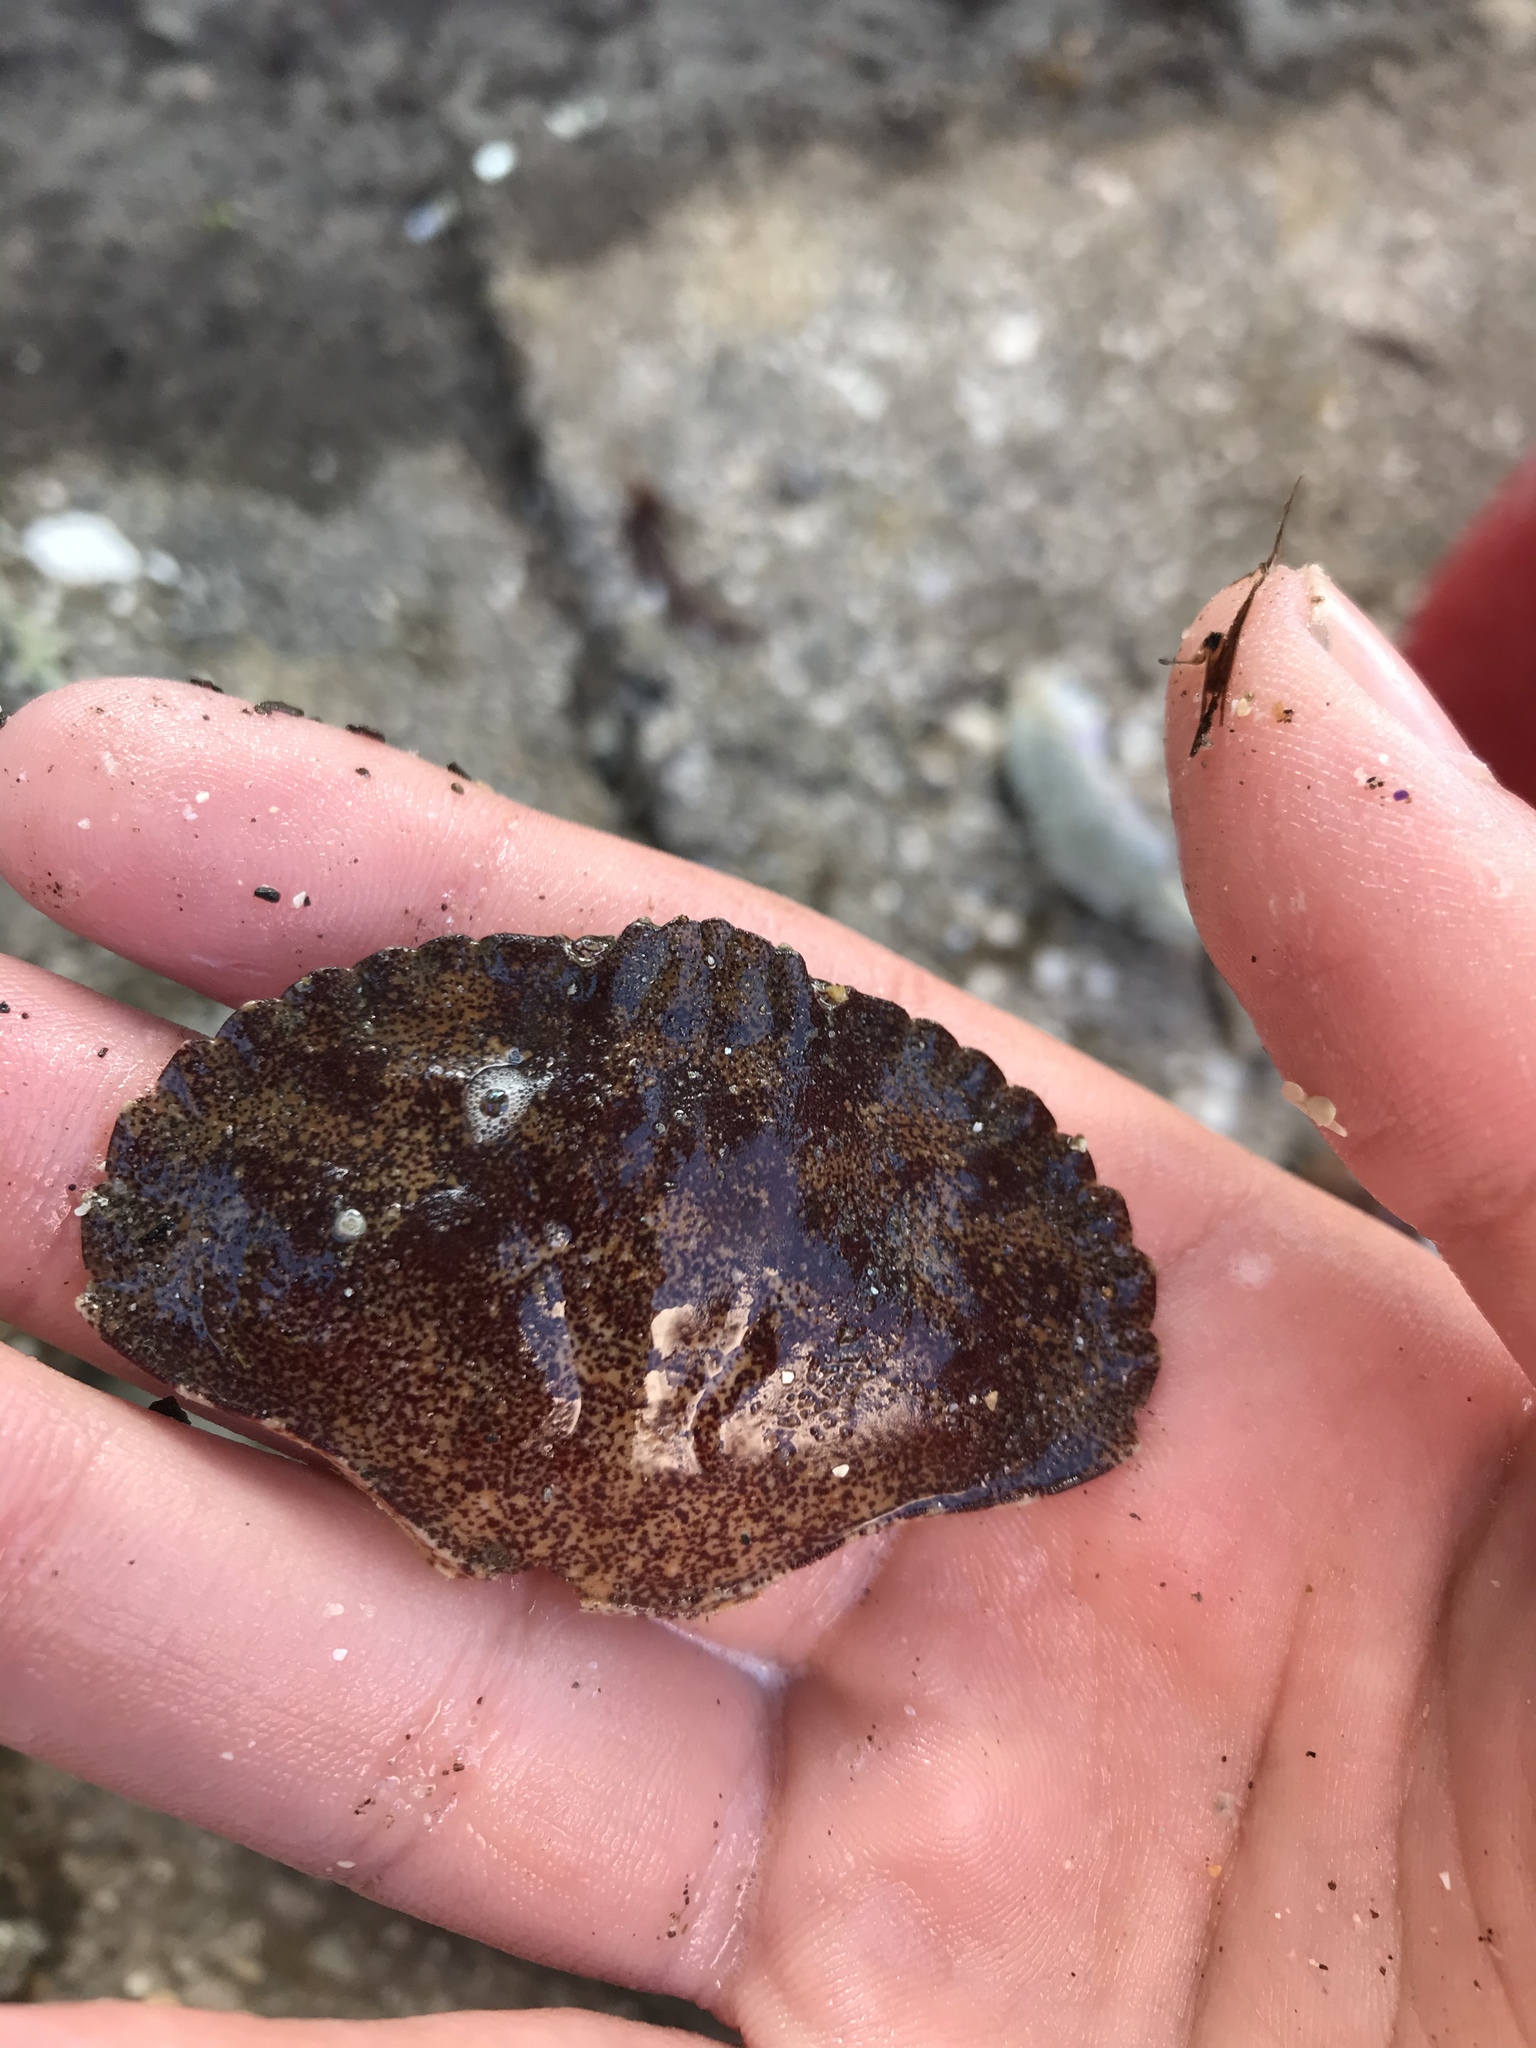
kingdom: Animalia
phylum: Arthropoda
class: Malacostraca
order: Decapoda
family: Cancridae
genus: Cancer
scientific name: Cancer productus
